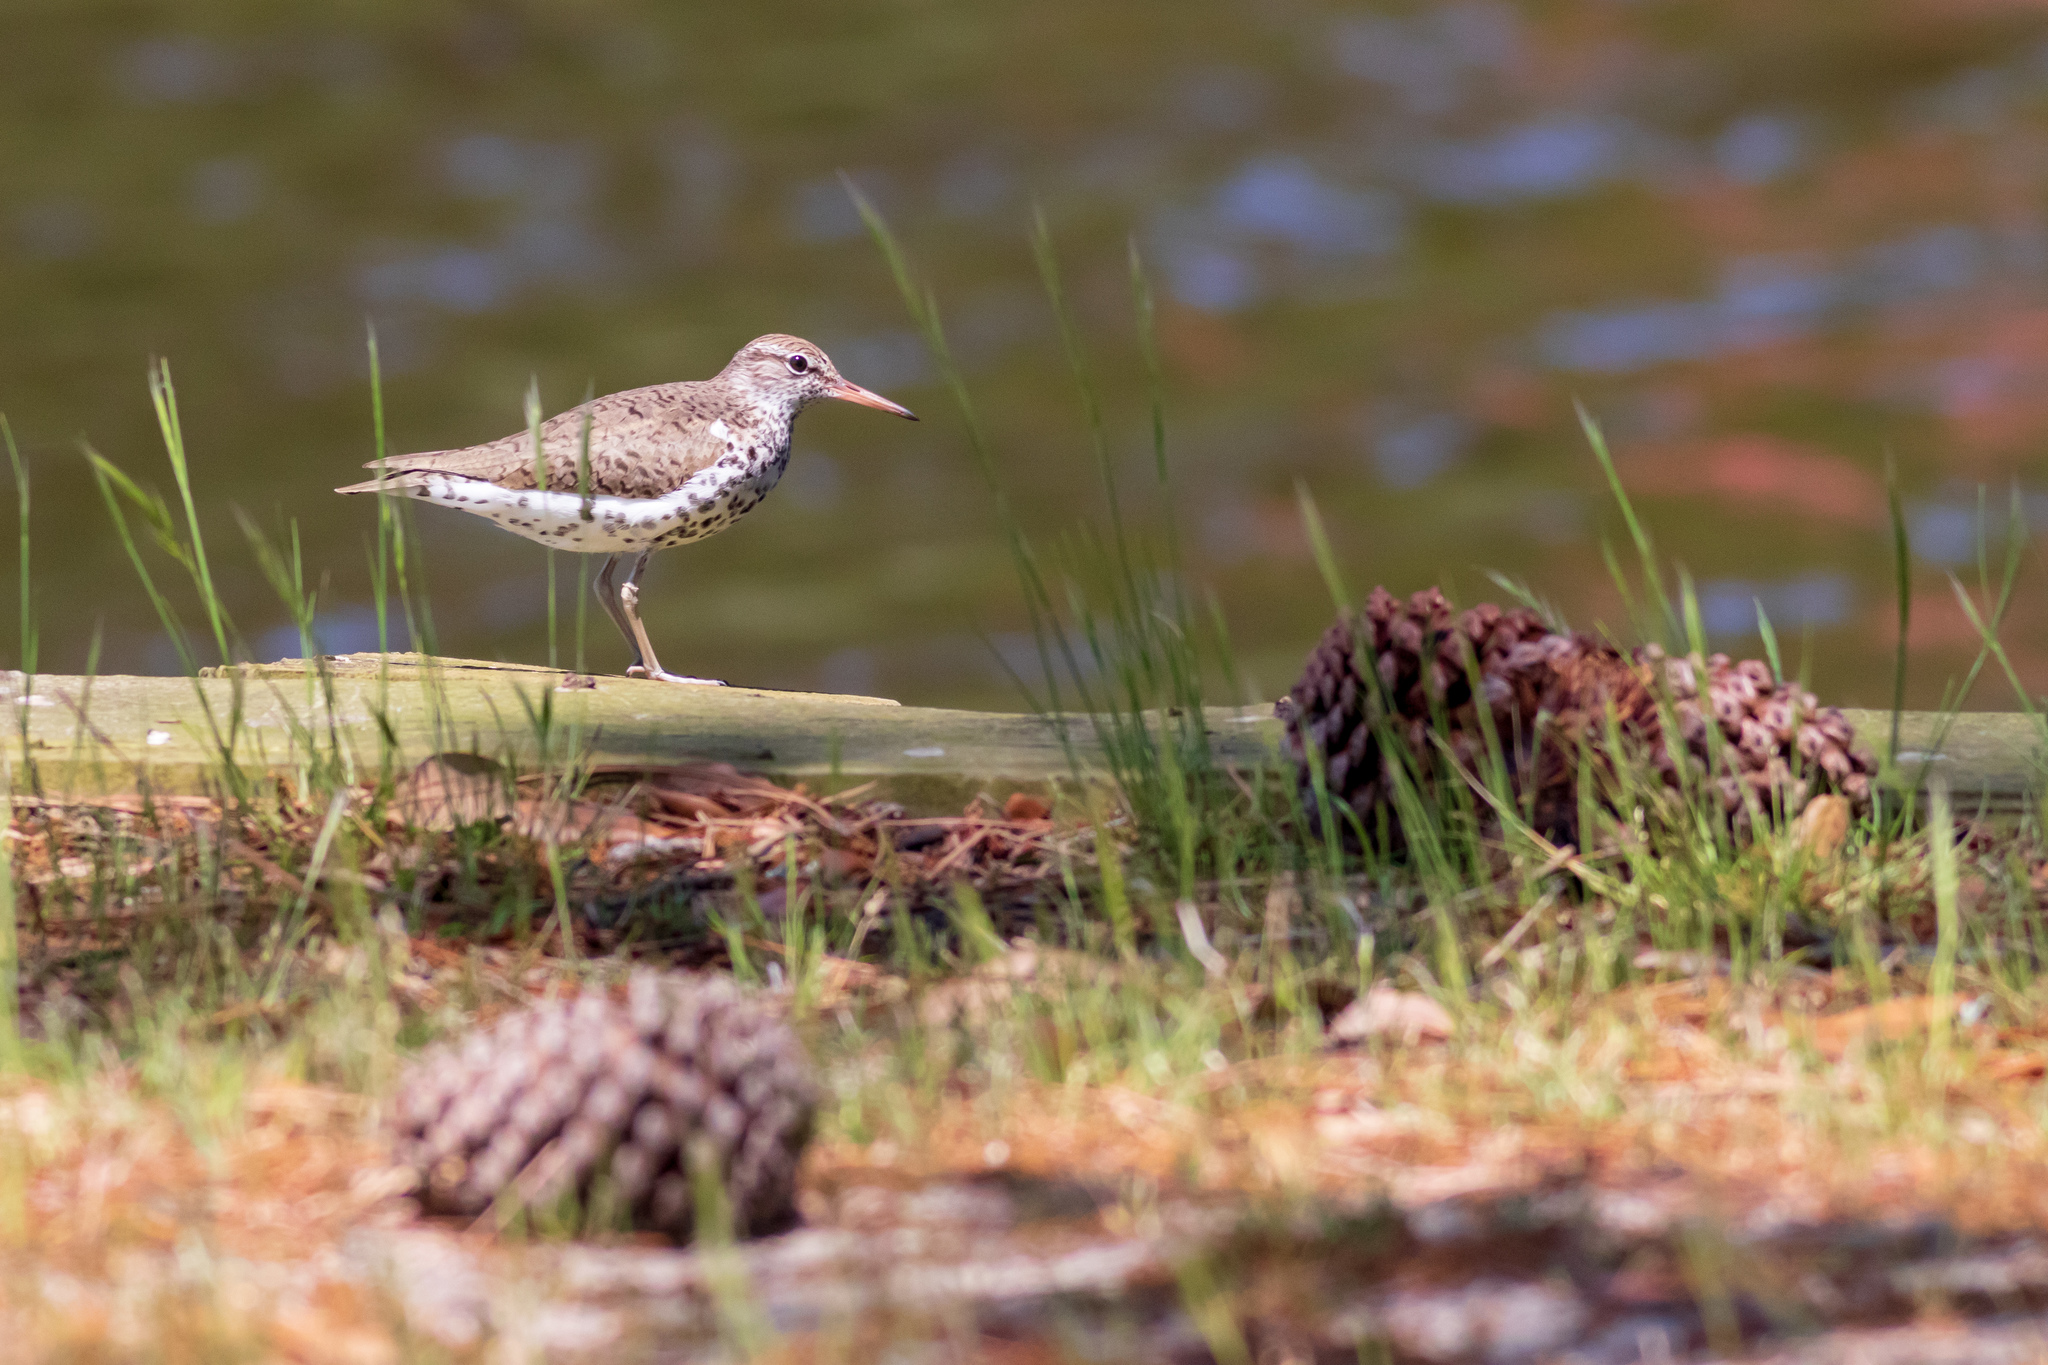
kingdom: Animalia
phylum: Chordata
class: Aves
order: Charadriiformes
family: Scolopacidae
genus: Actitis
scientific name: Actitis macularius
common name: Spotted sandpiper
